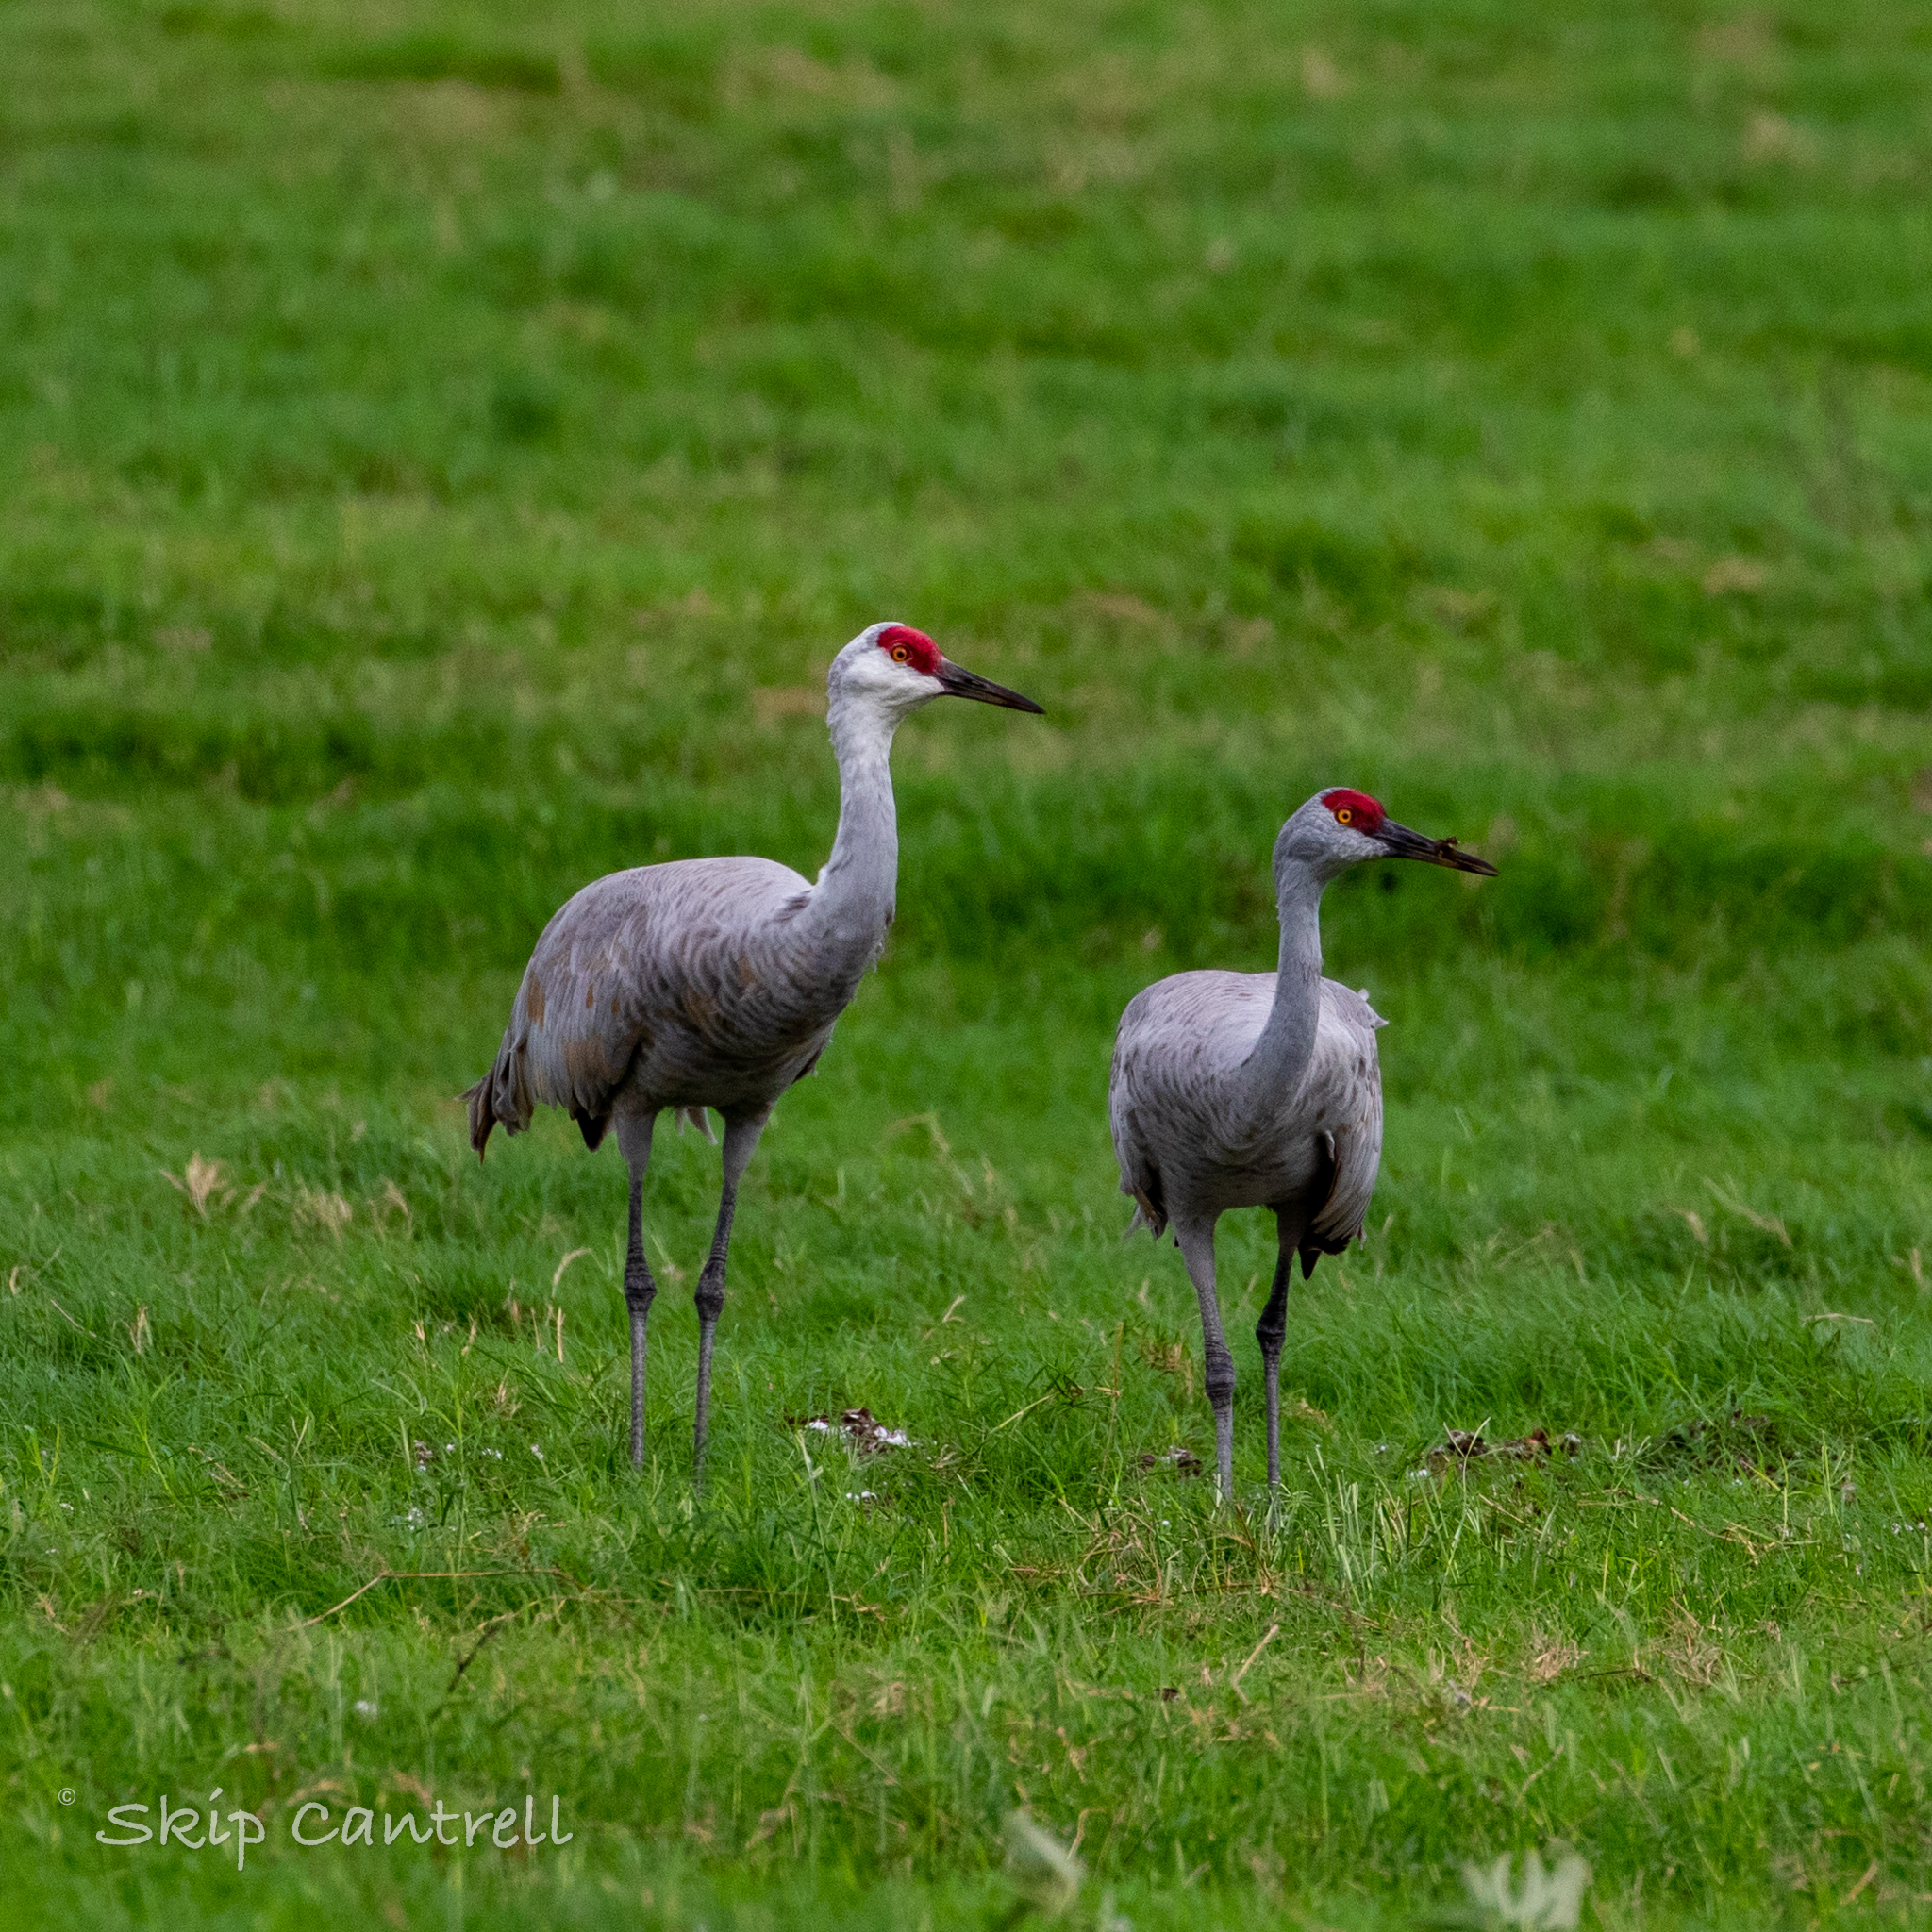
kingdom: Animalia
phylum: Chordata
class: Aves
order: Gruiformes
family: Gruidae
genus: Grus
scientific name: Grus canadensis
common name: Sandhill crane
